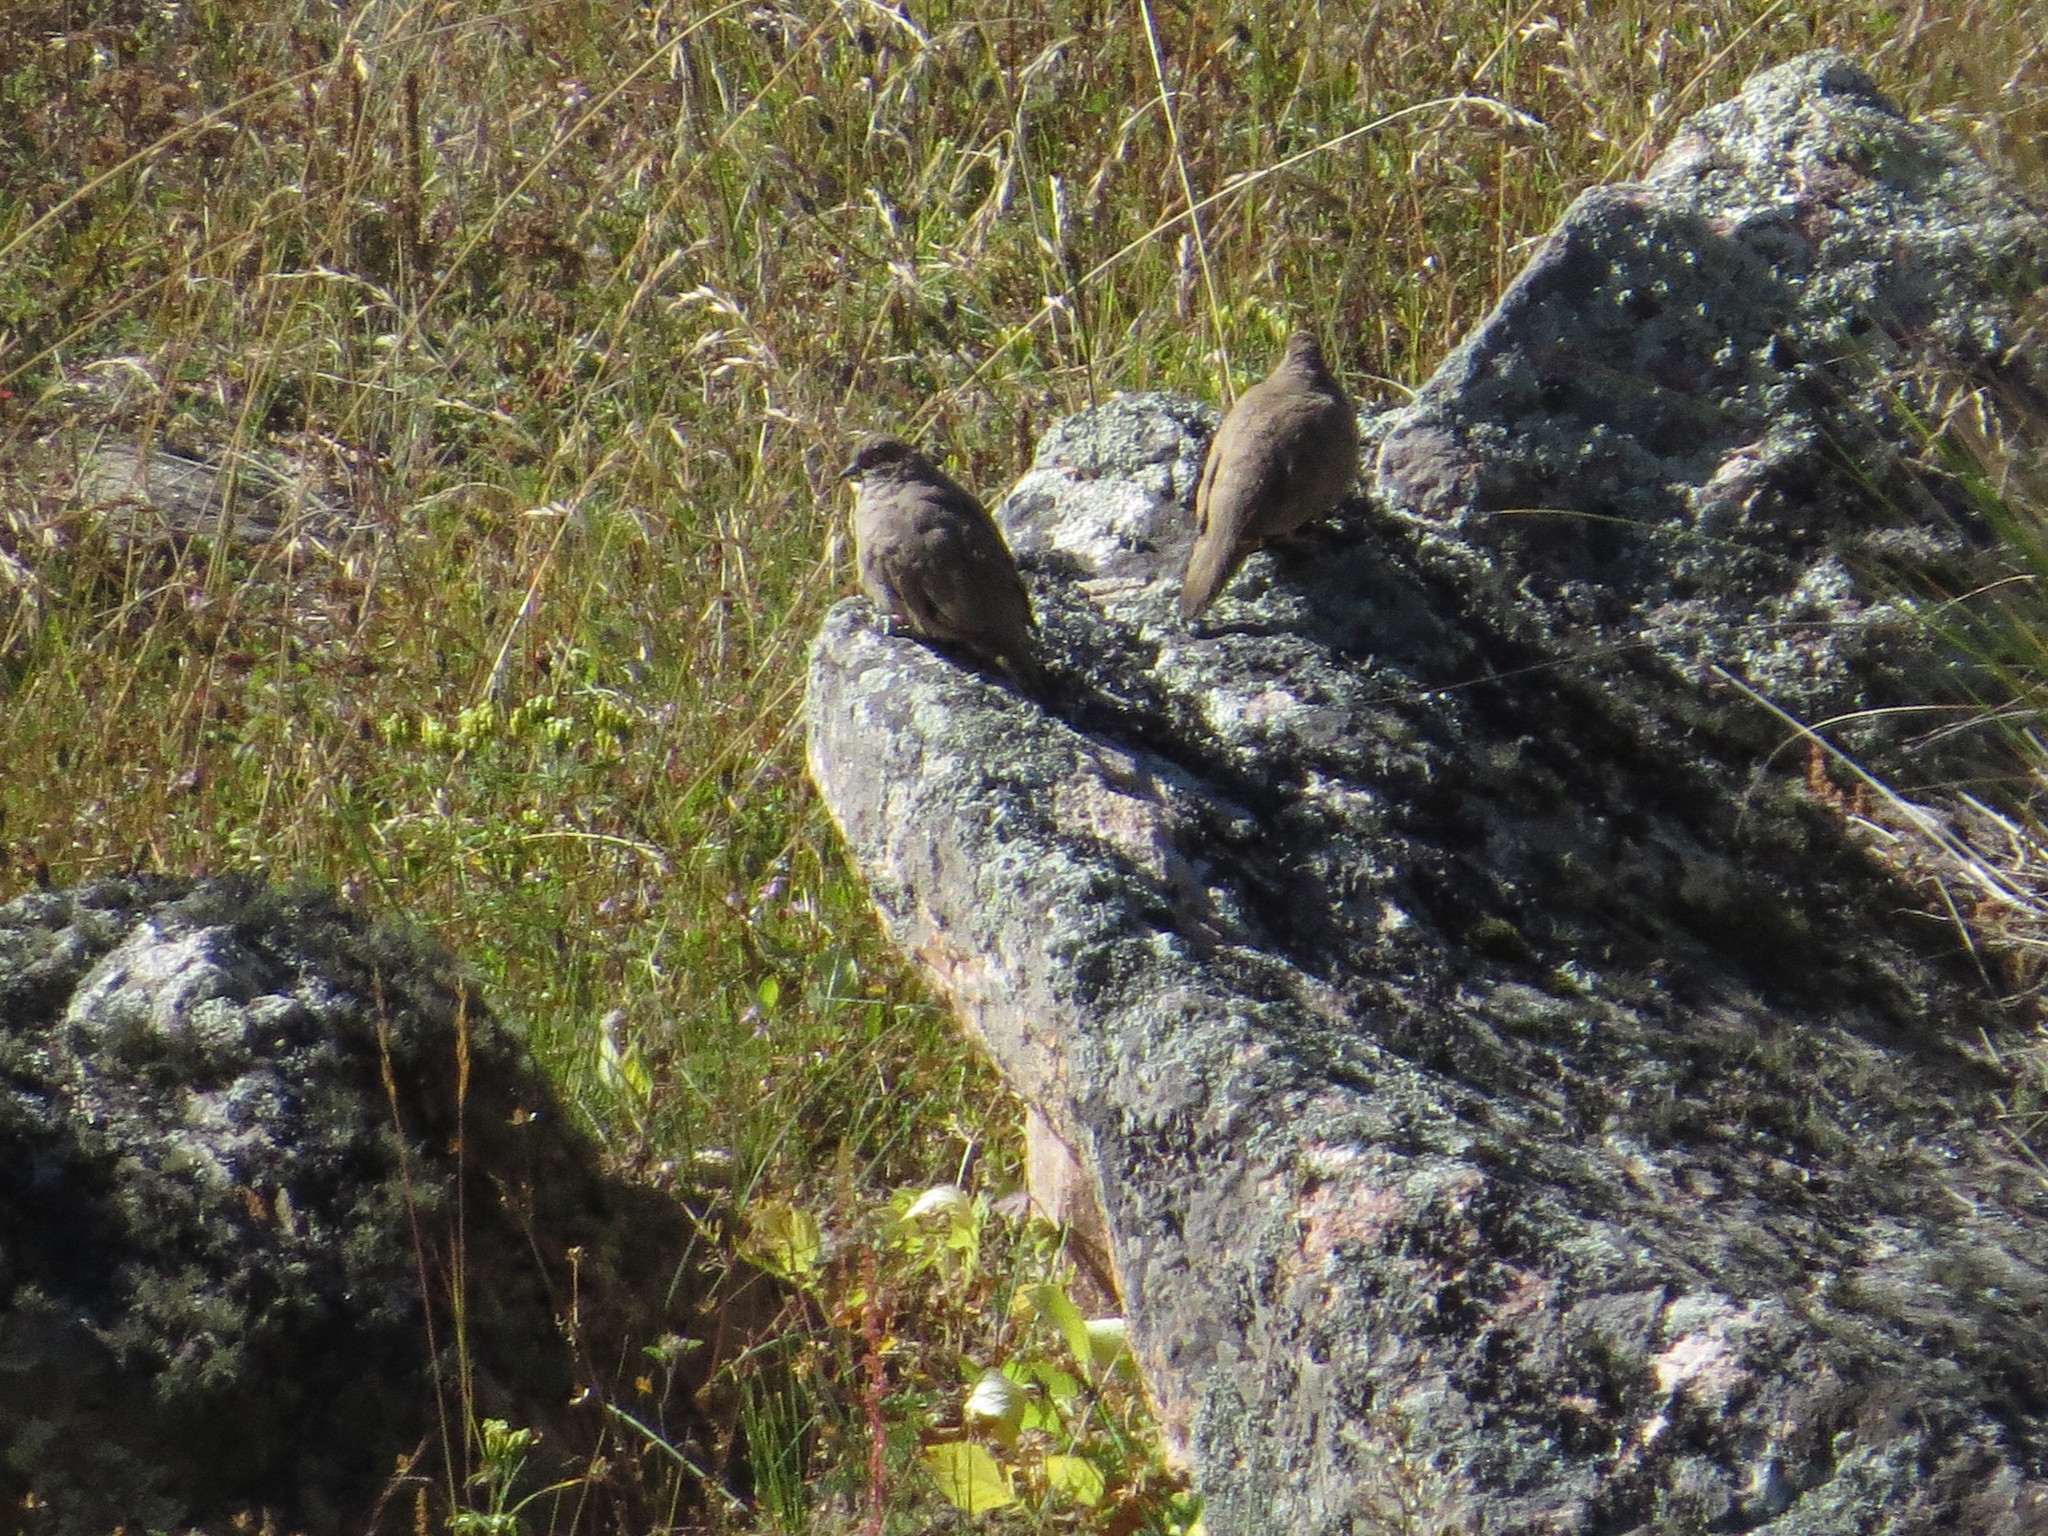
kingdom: Animalia
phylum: Chordata
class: Aves
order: Columbiformes
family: Columbidae
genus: Metriopelia
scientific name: Metriopelia morenoi
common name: Moreno's ground dove
